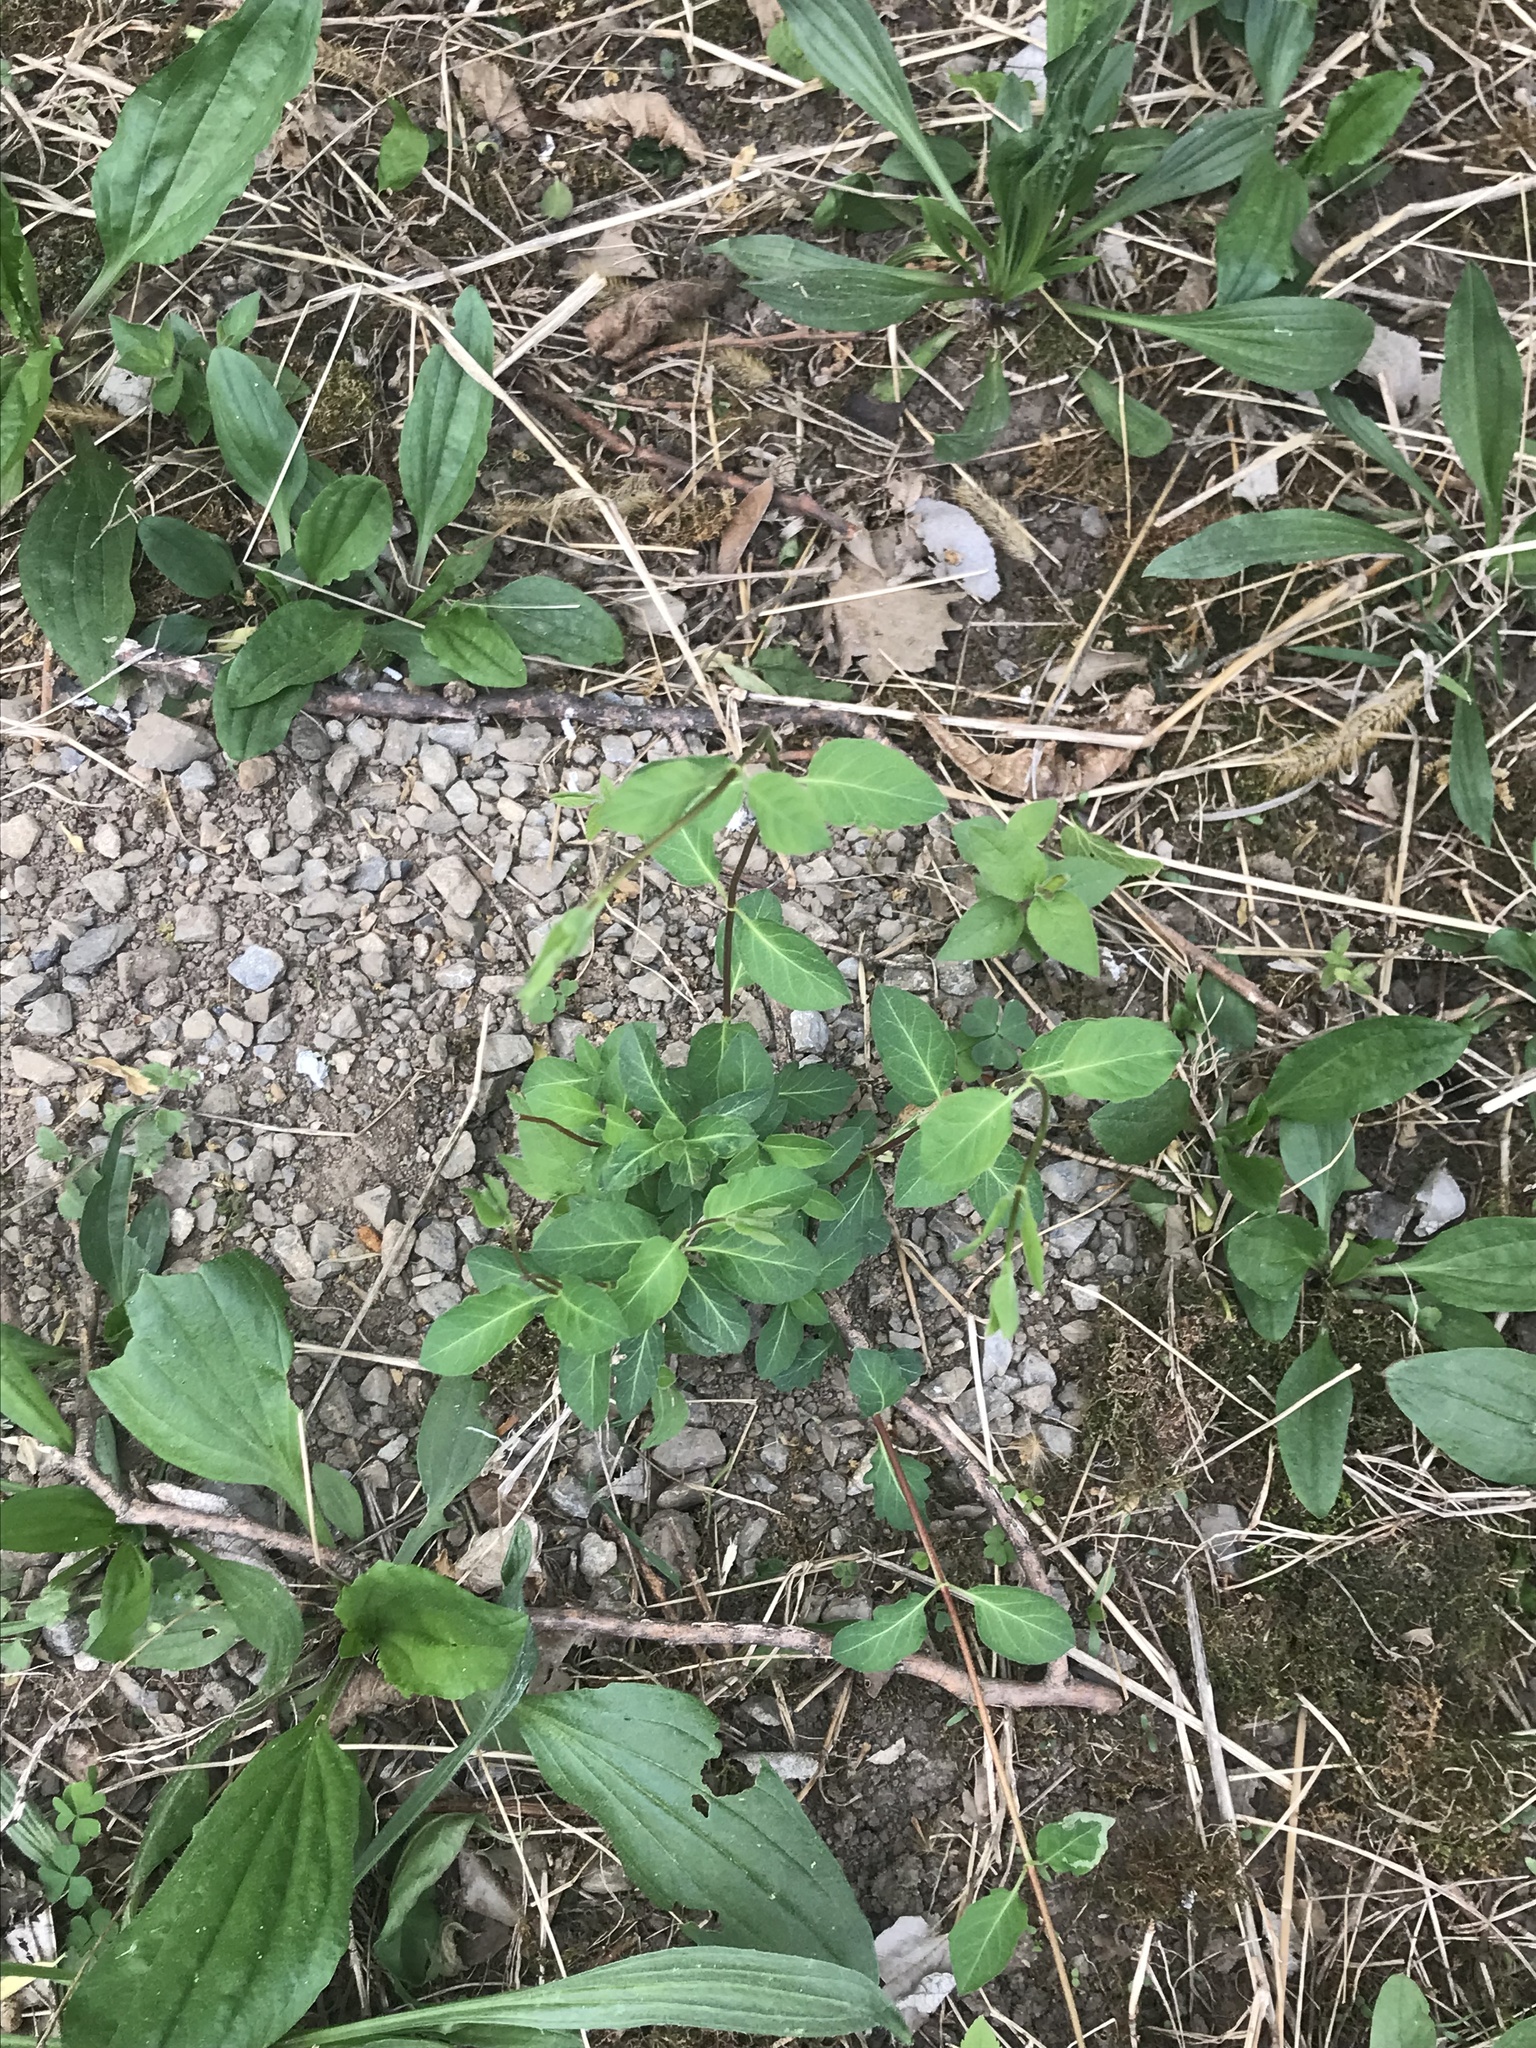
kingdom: Plantae
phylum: Tracheophyta
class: Magnoliopsida
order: Dipsacales
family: Caprifoliaceae
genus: Lonicera
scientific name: Lonicera japonica
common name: Japanese honeysuckle
